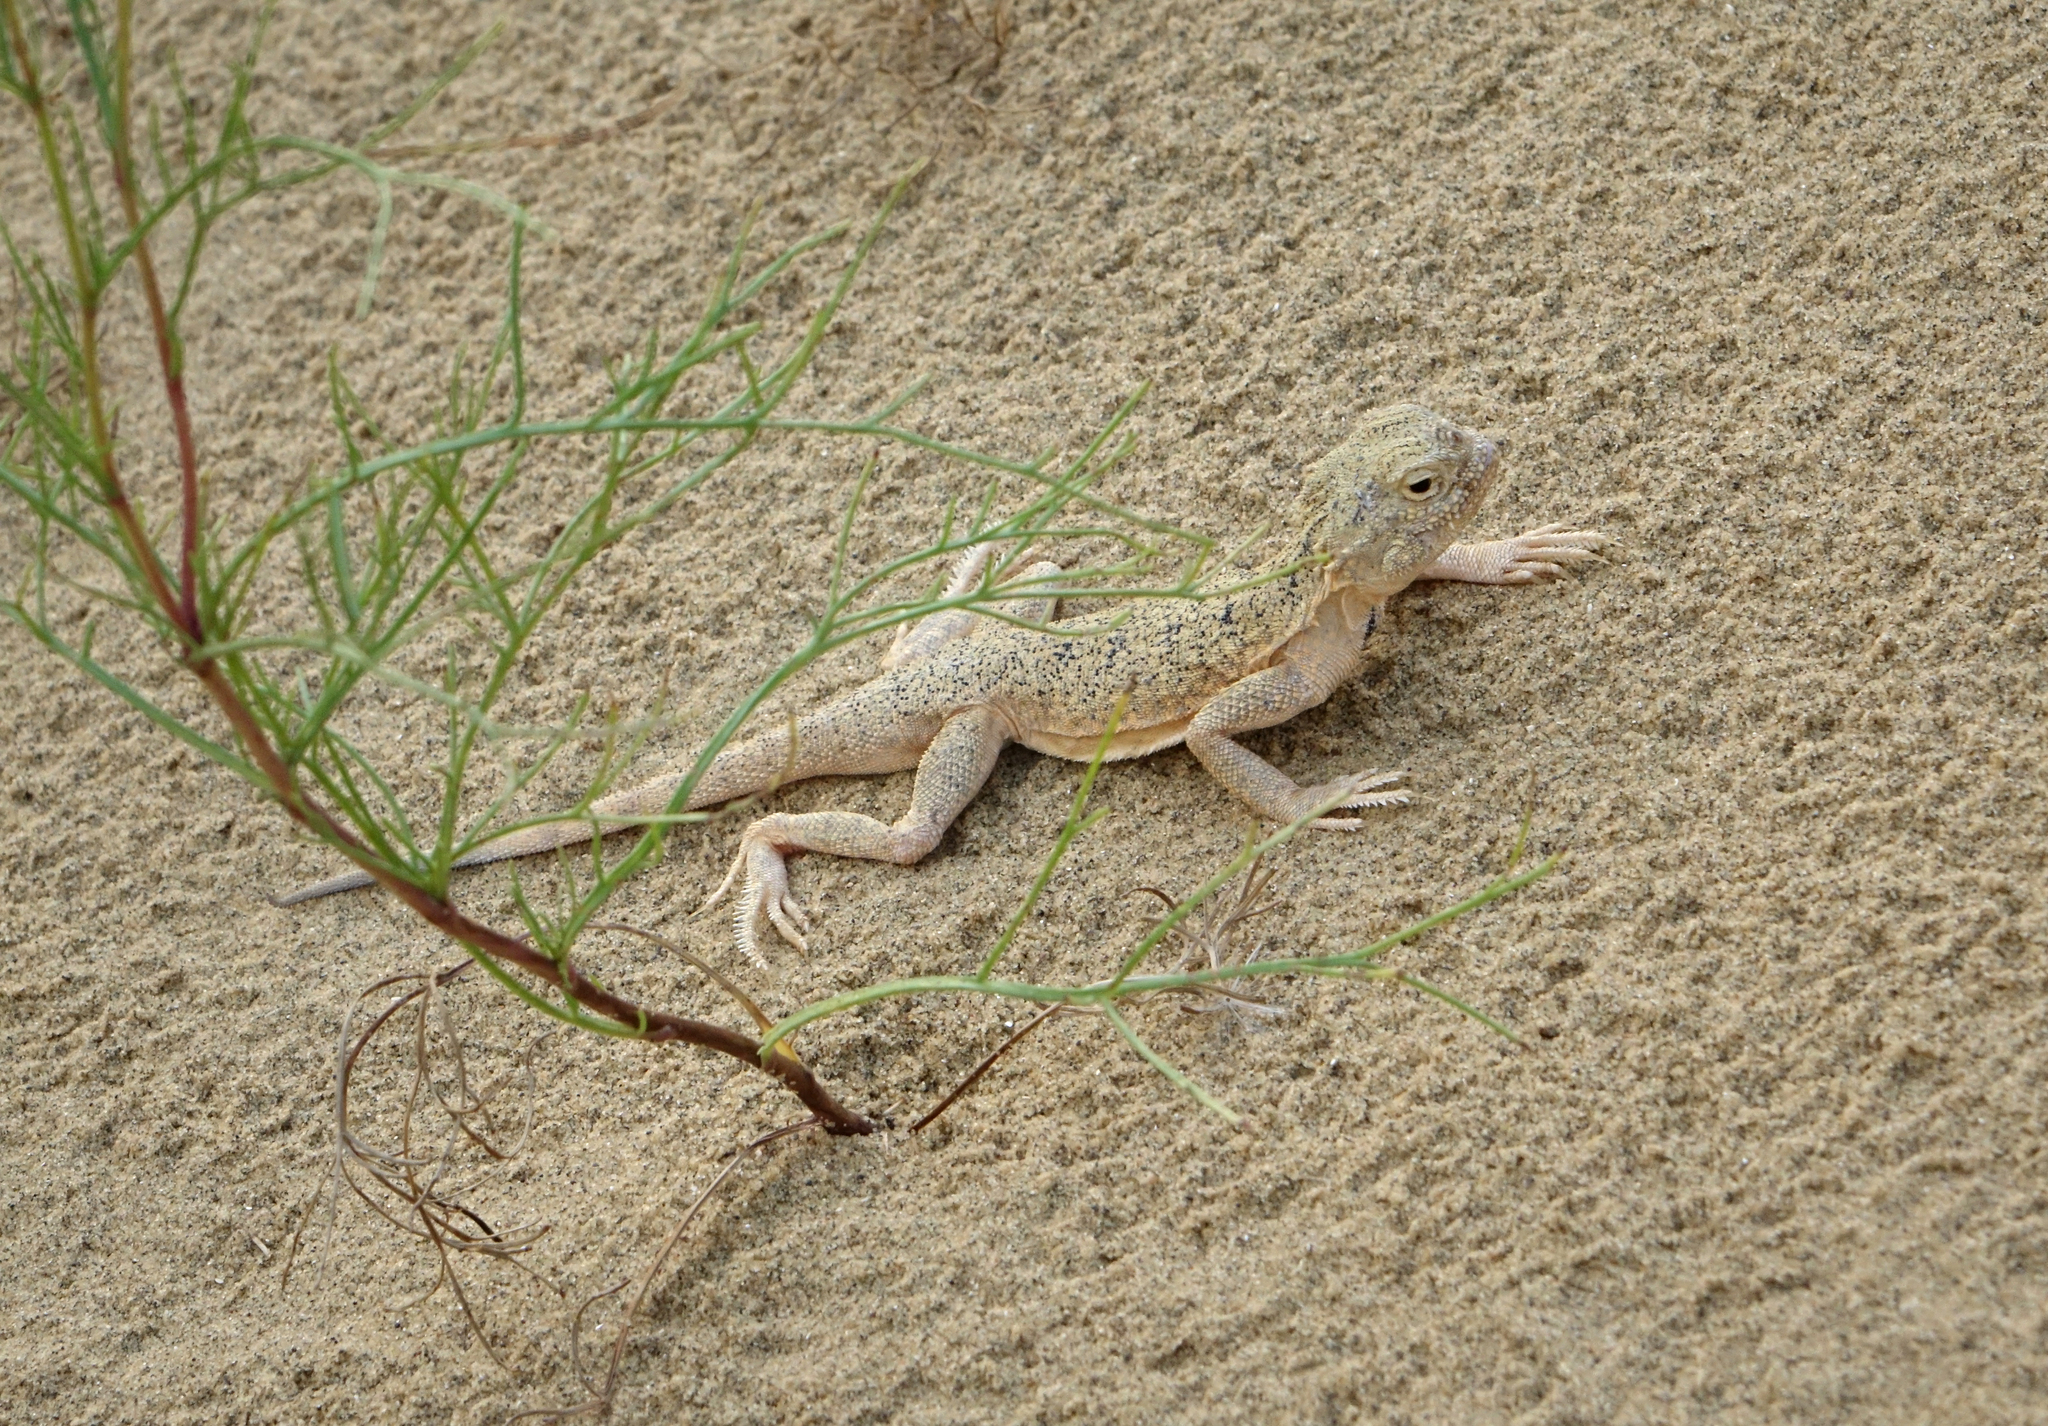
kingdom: Animalia
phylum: Chordata
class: Squamata
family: Agamidae
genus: Phrynocephalus
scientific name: Phrynocephalus mystaceus
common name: Secret toadhead agama
